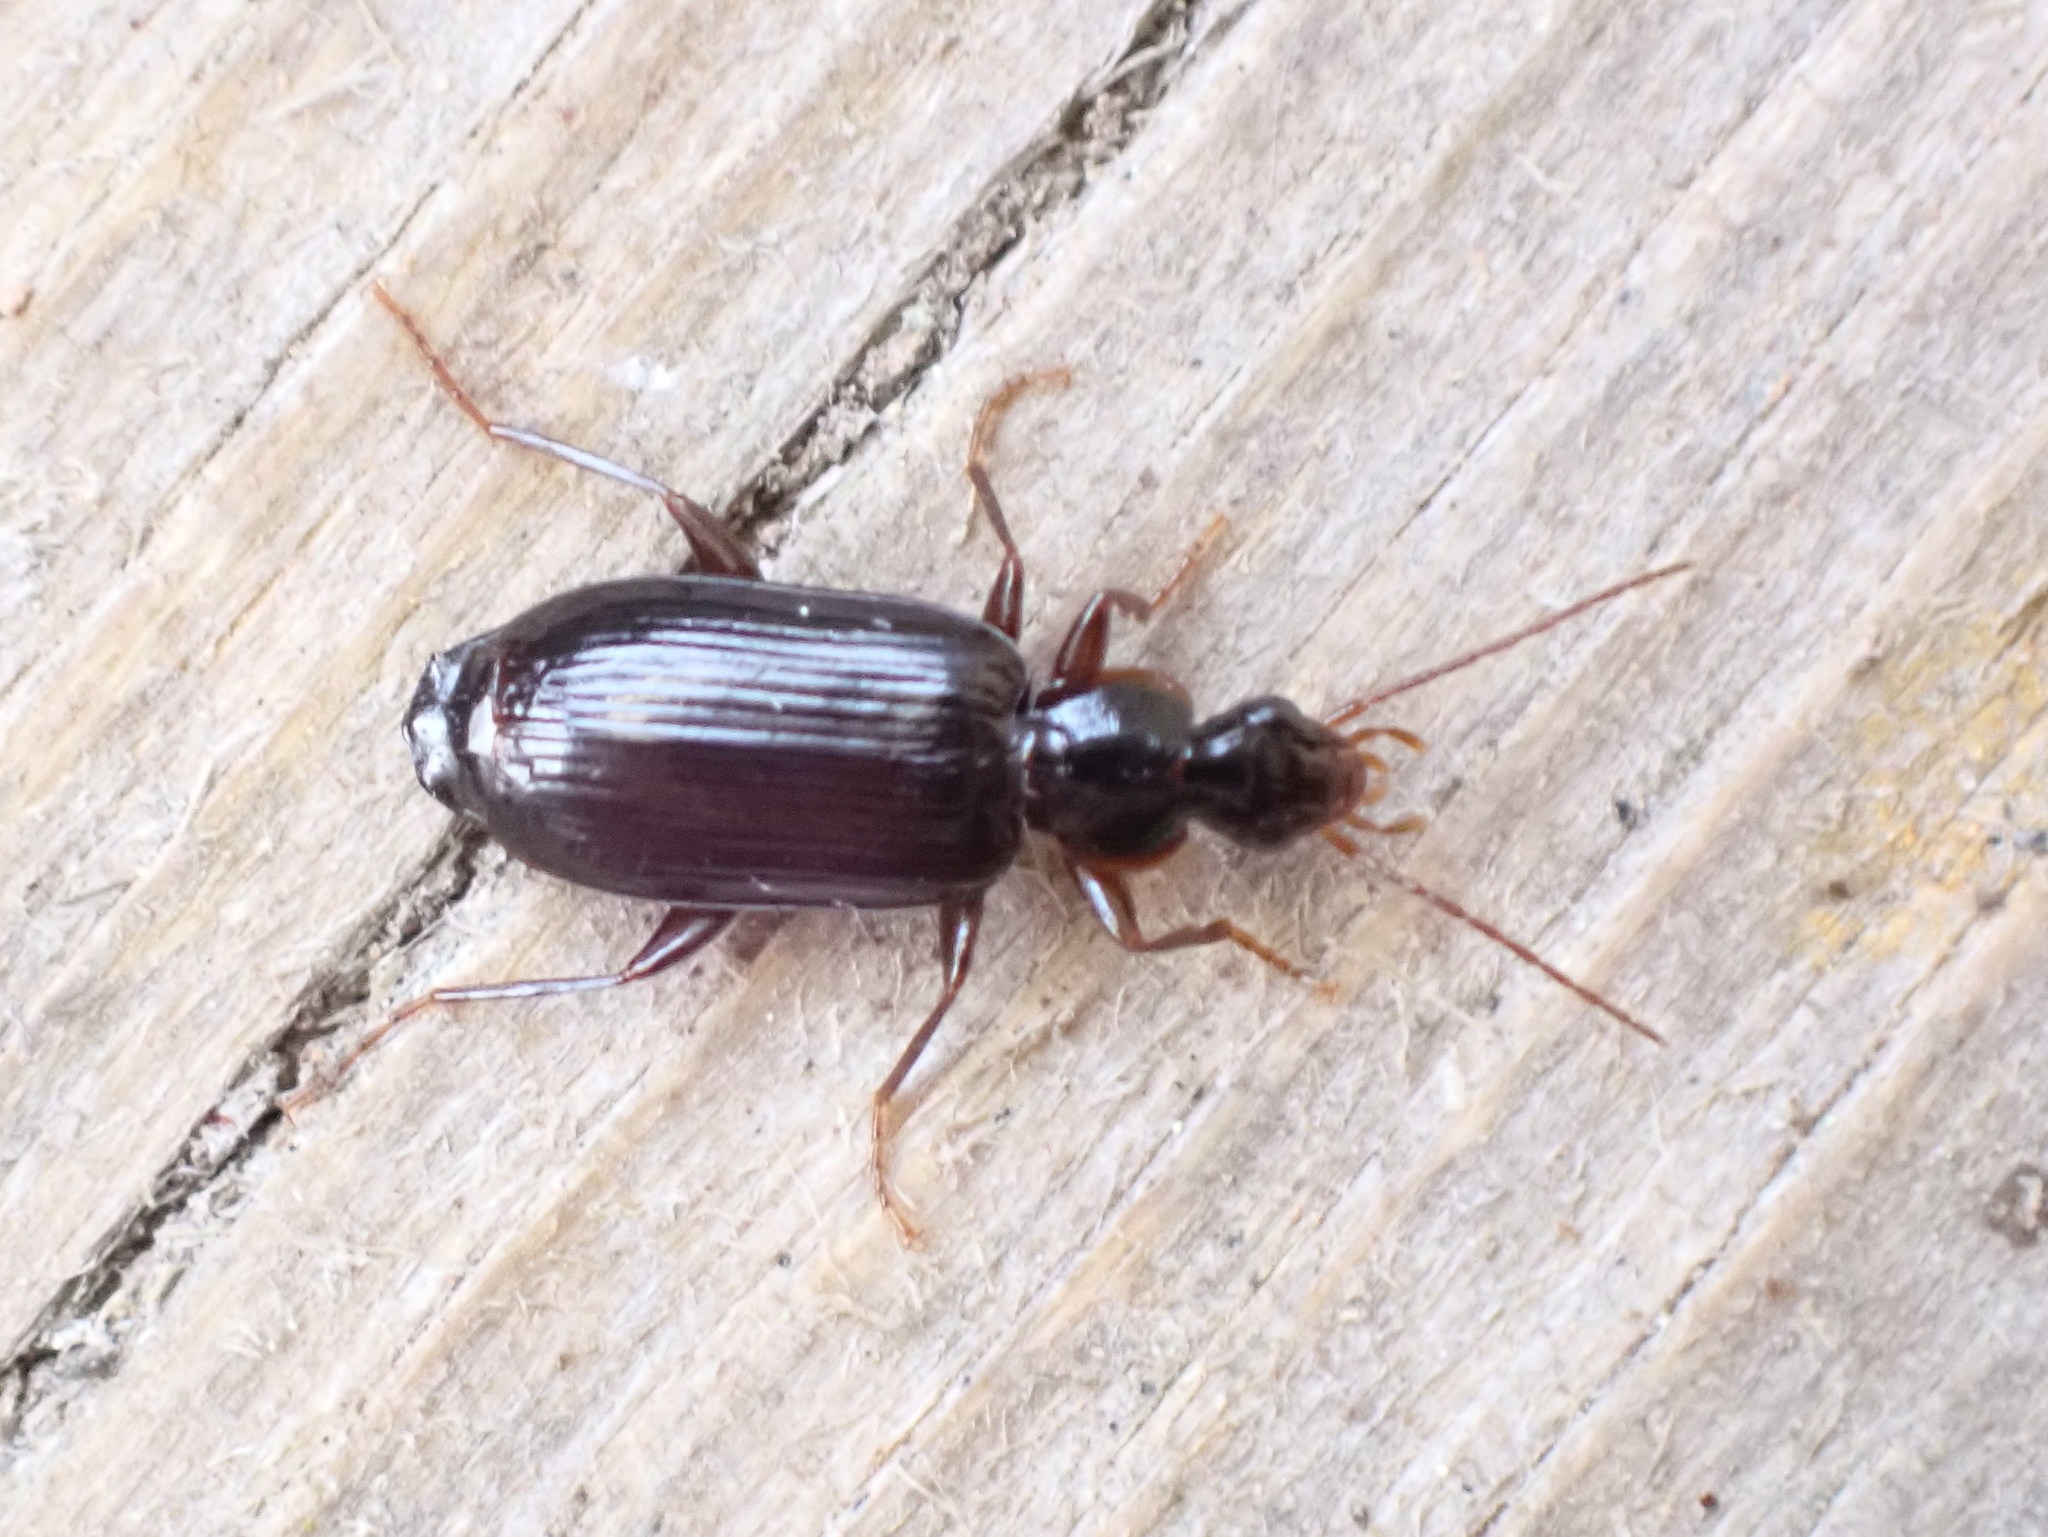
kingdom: Animalia
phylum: Arthropoda
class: Insecta
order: Coleoptera
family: Carabidae
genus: Dromius
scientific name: Dromius piceus
